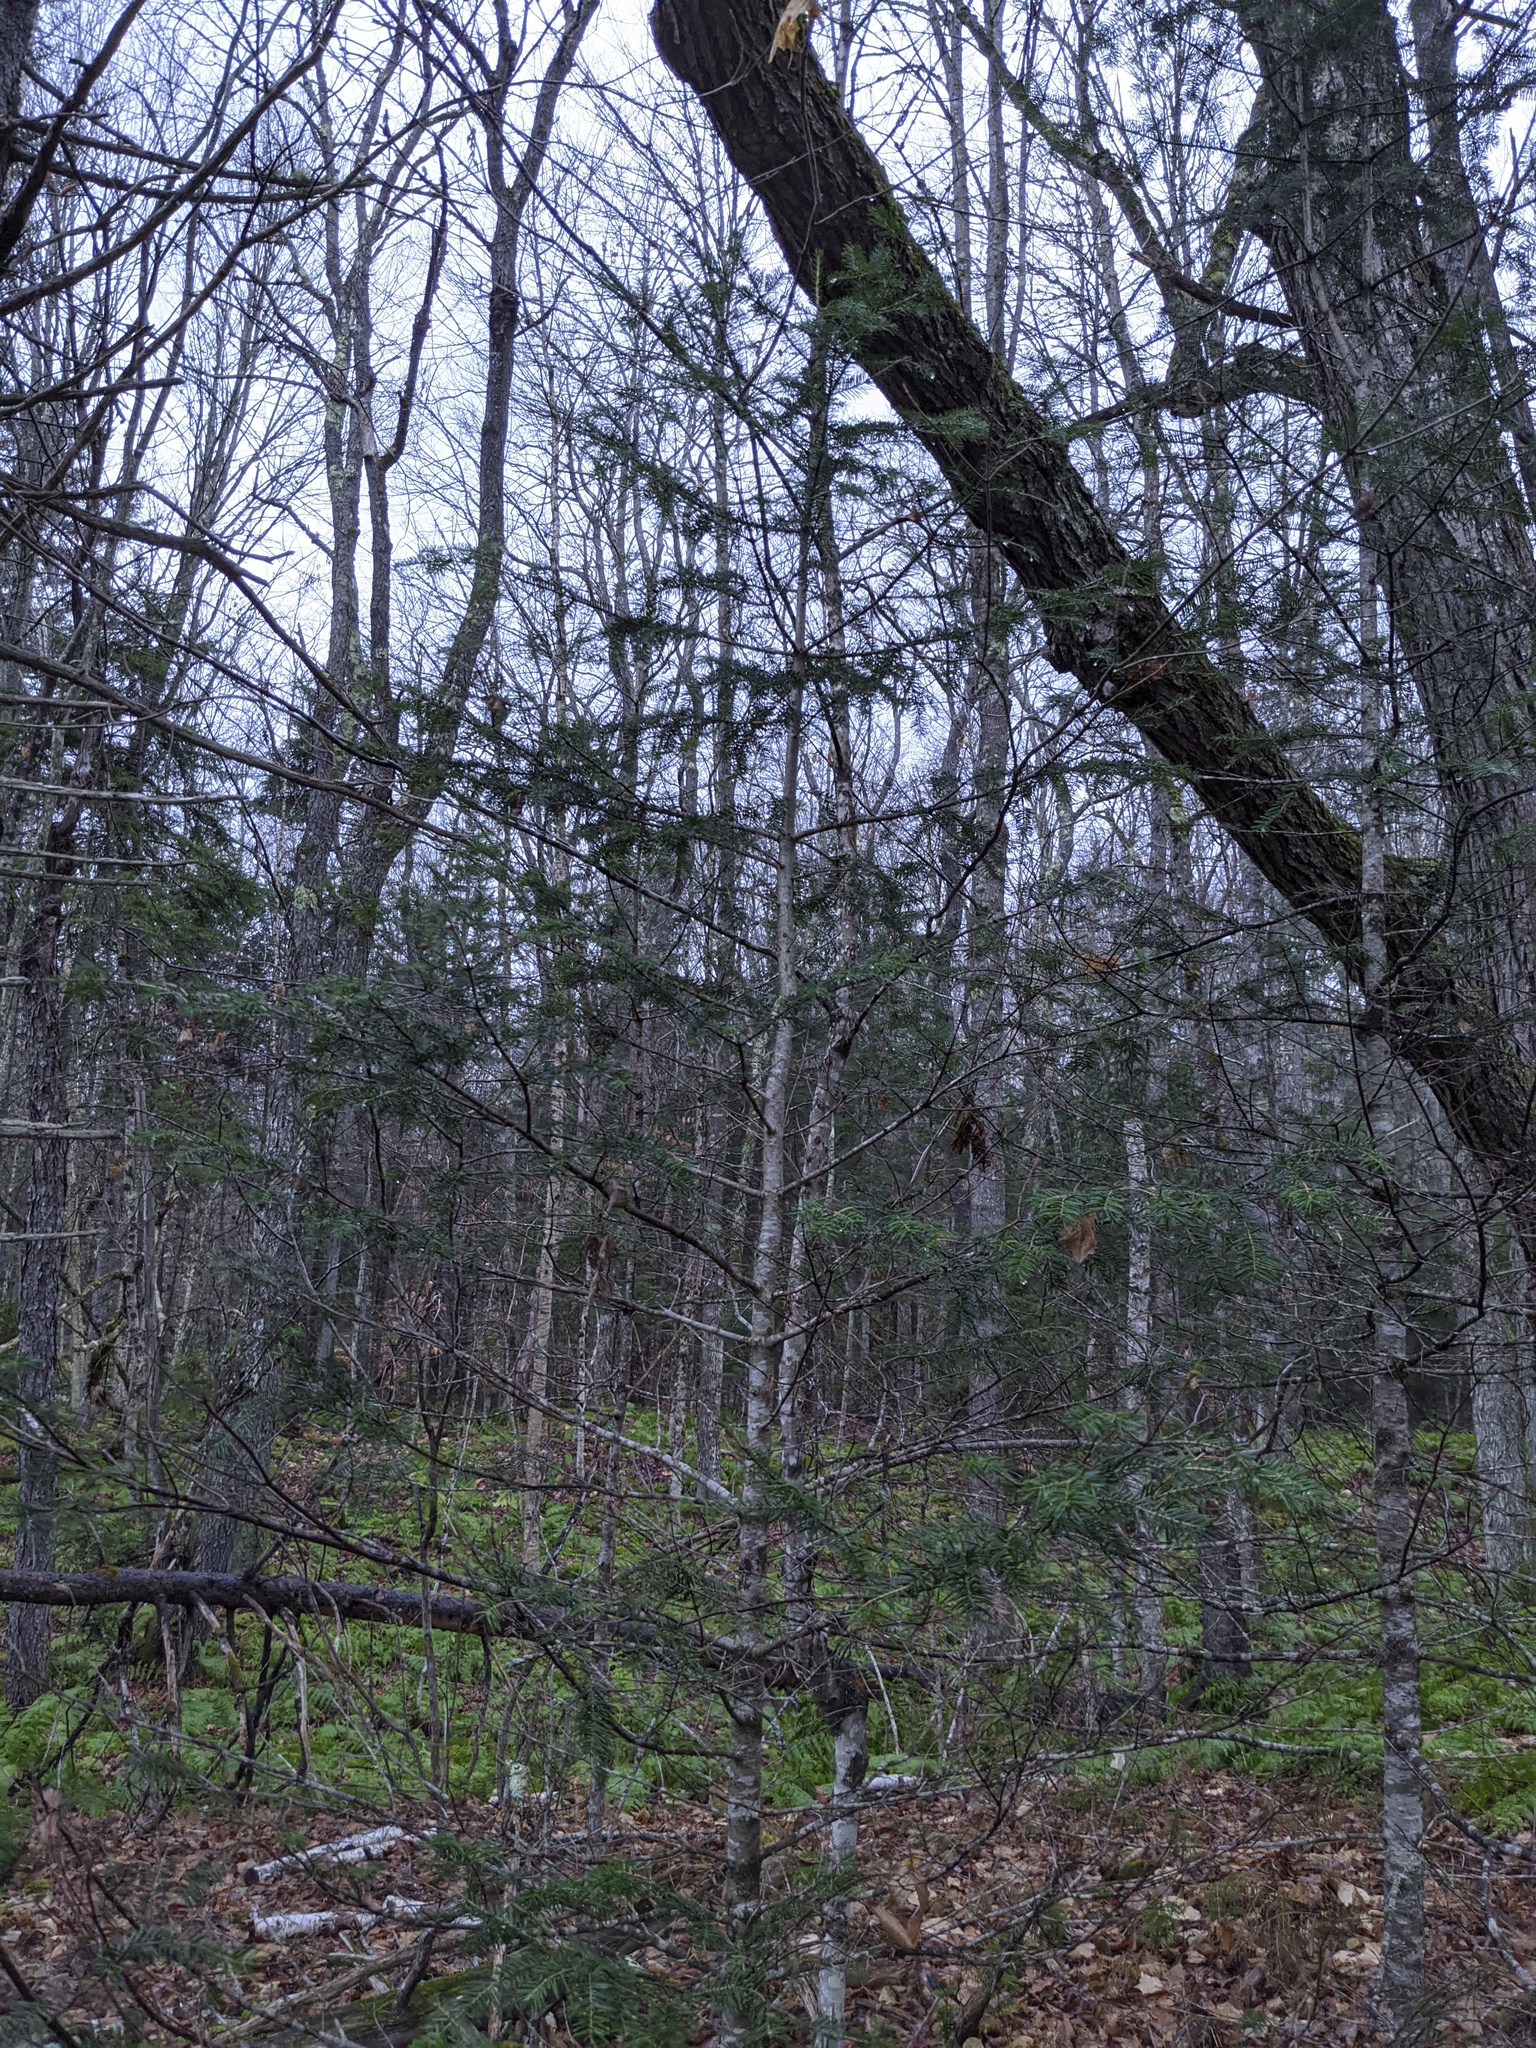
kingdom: Plantae
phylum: Tracheophyta
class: Pinopsida
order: Pinales
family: Pinaceae
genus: Abies
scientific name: Abies balsamea
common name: Balsam fir
